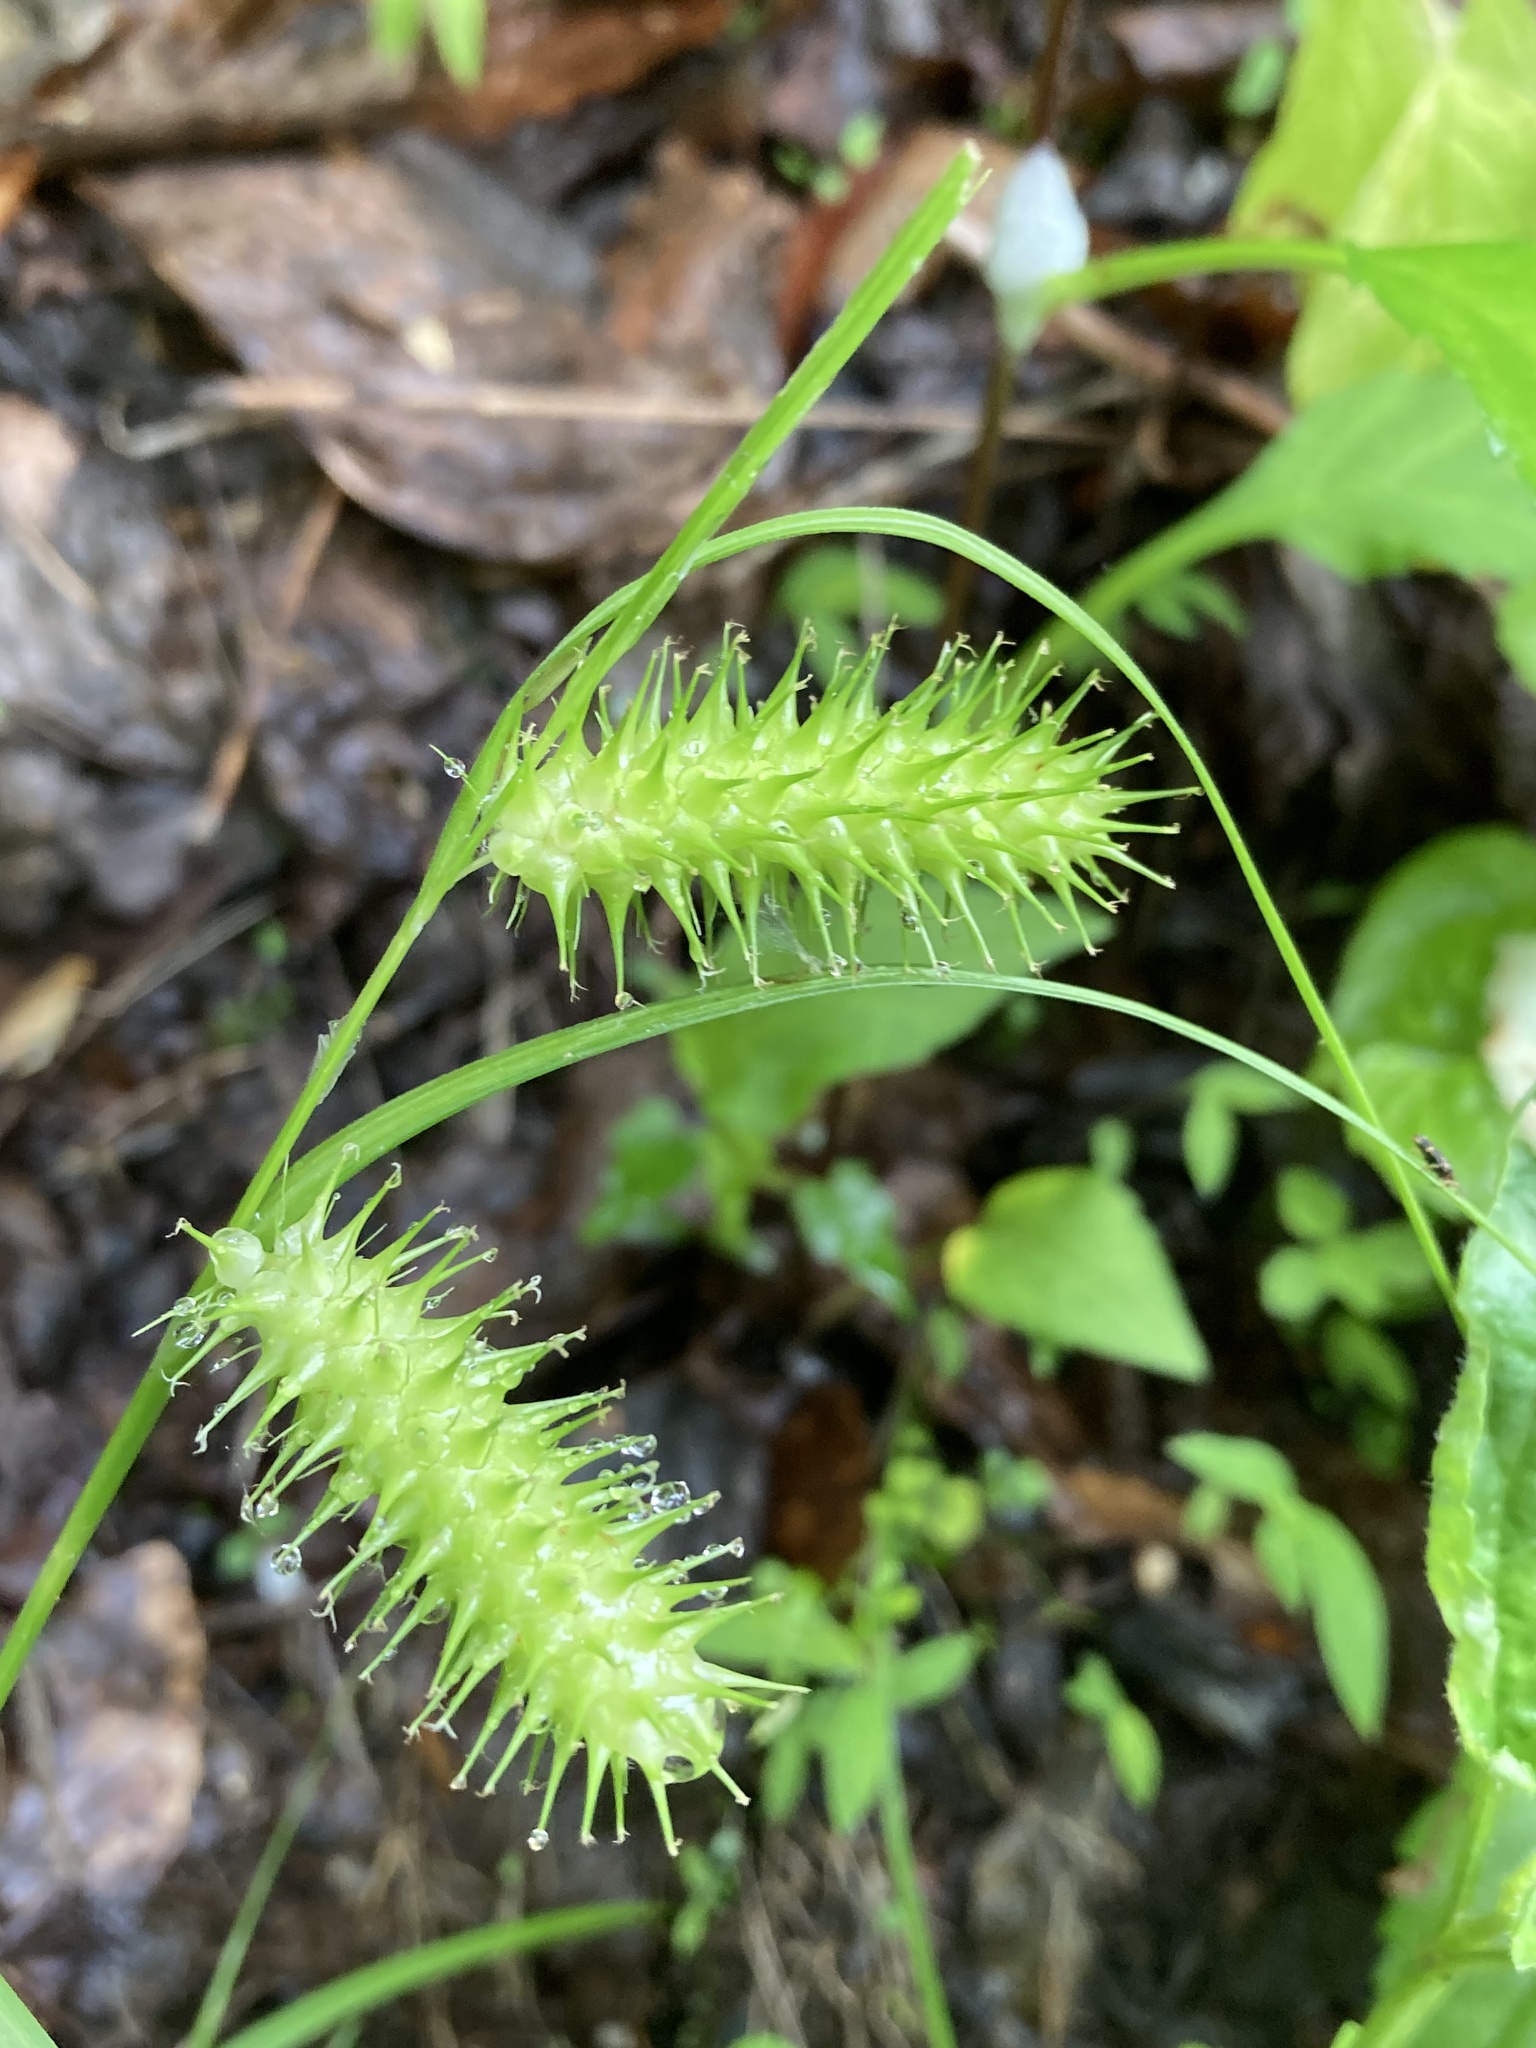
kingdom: Plantae
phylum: Tracheophyta
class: Liliopsida
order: Poales
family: Cyperaceae
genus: Carex
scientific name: Carex lurida
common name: Sallow sedge
